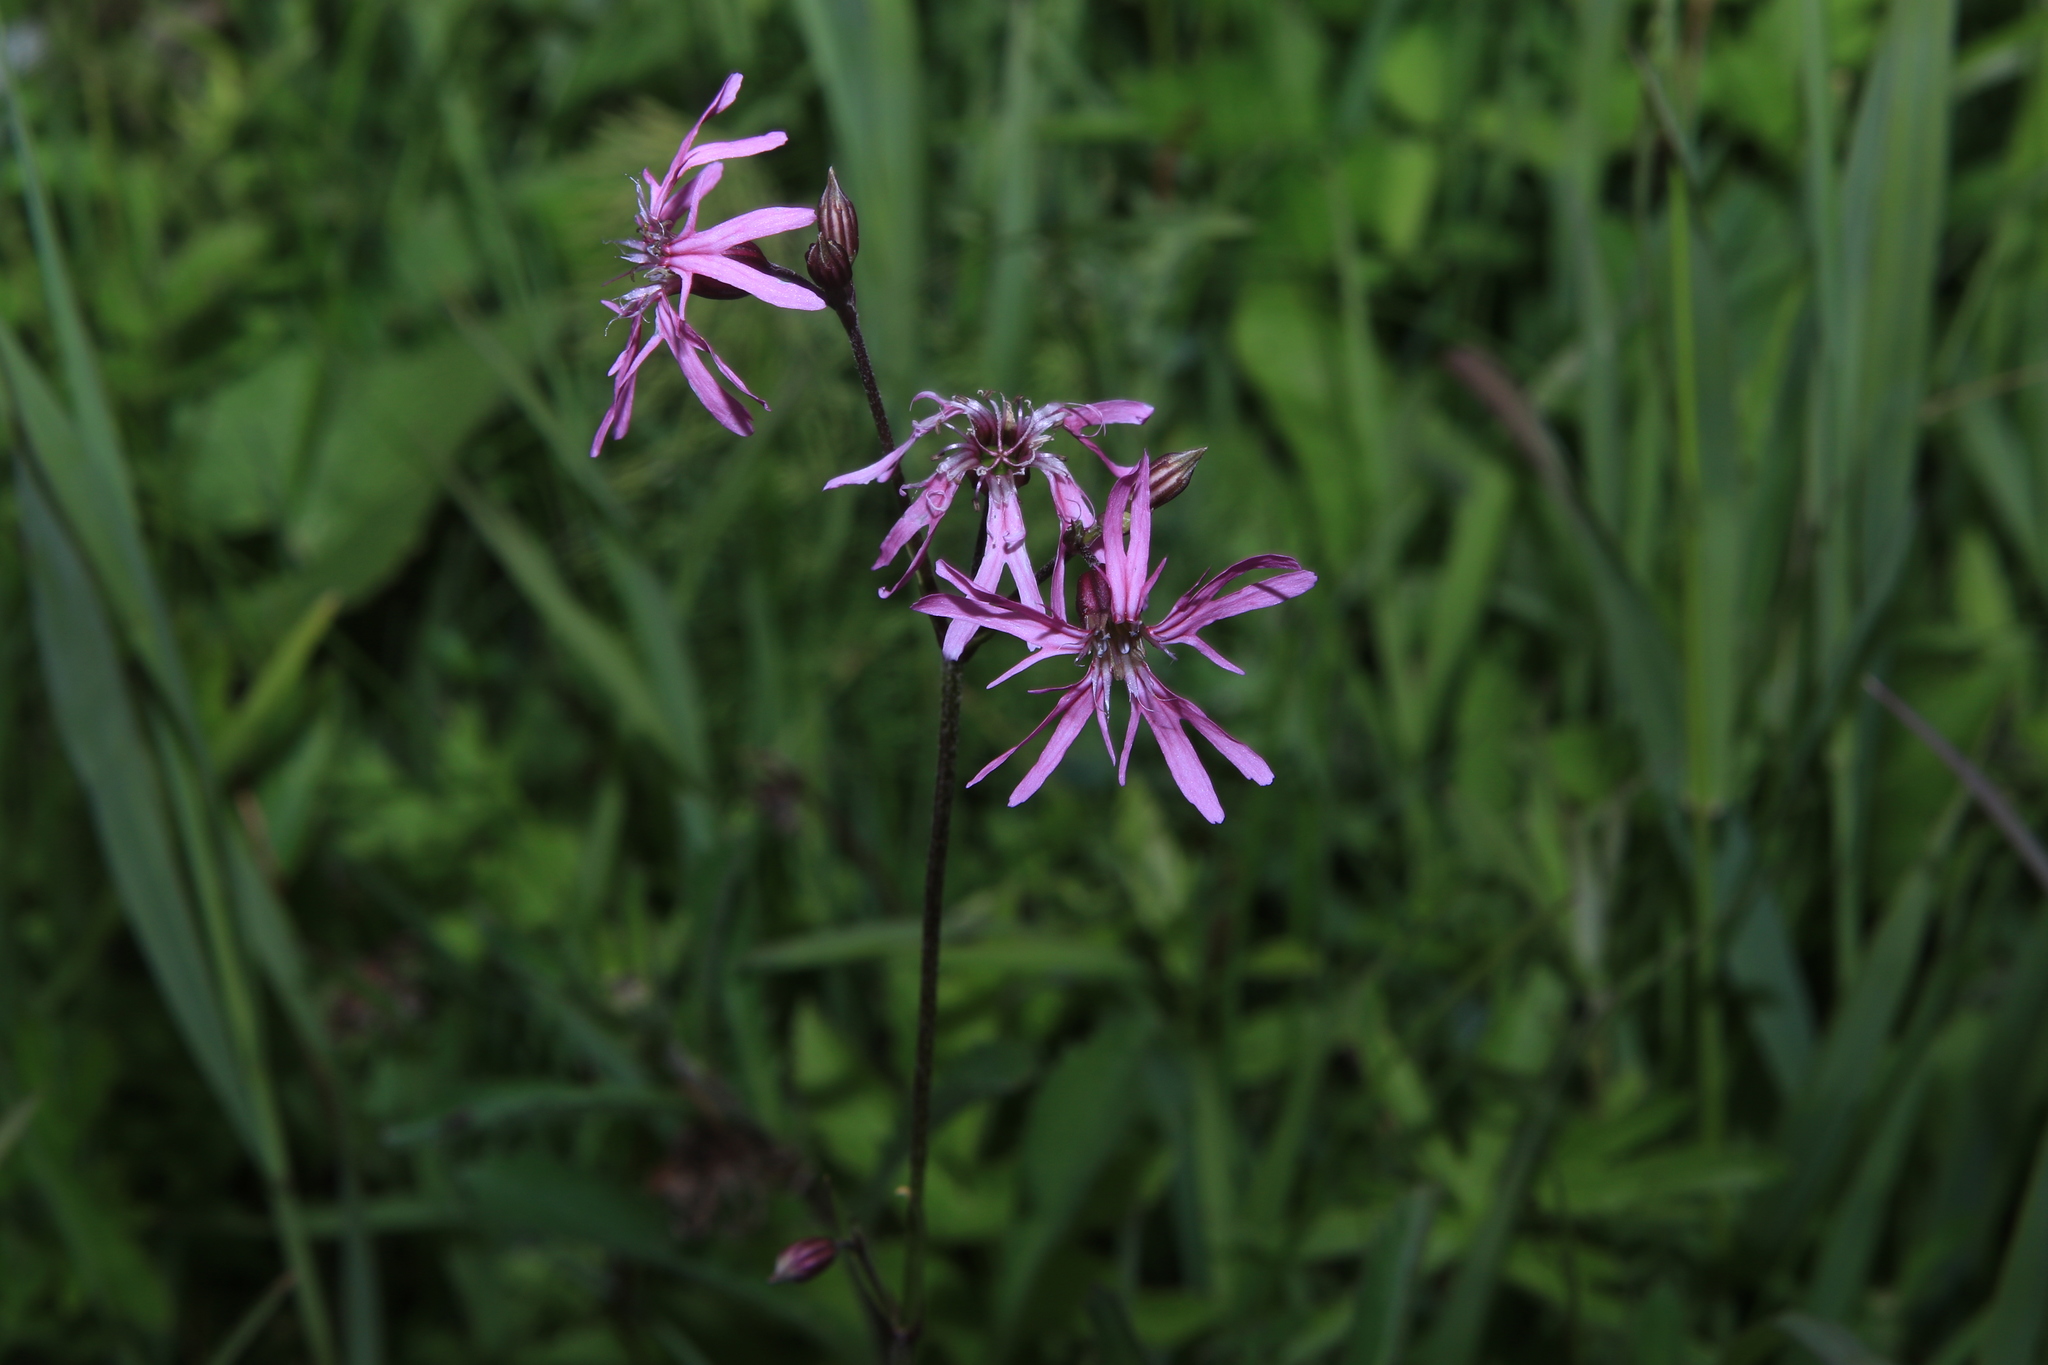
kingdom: Plantae
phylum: Tracheophyta
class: Magnoliopsida
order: Caryophyllales
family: Caryophyllaceae
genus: Silene
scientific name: Silene flos-cuculi
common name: Ragged-robin
